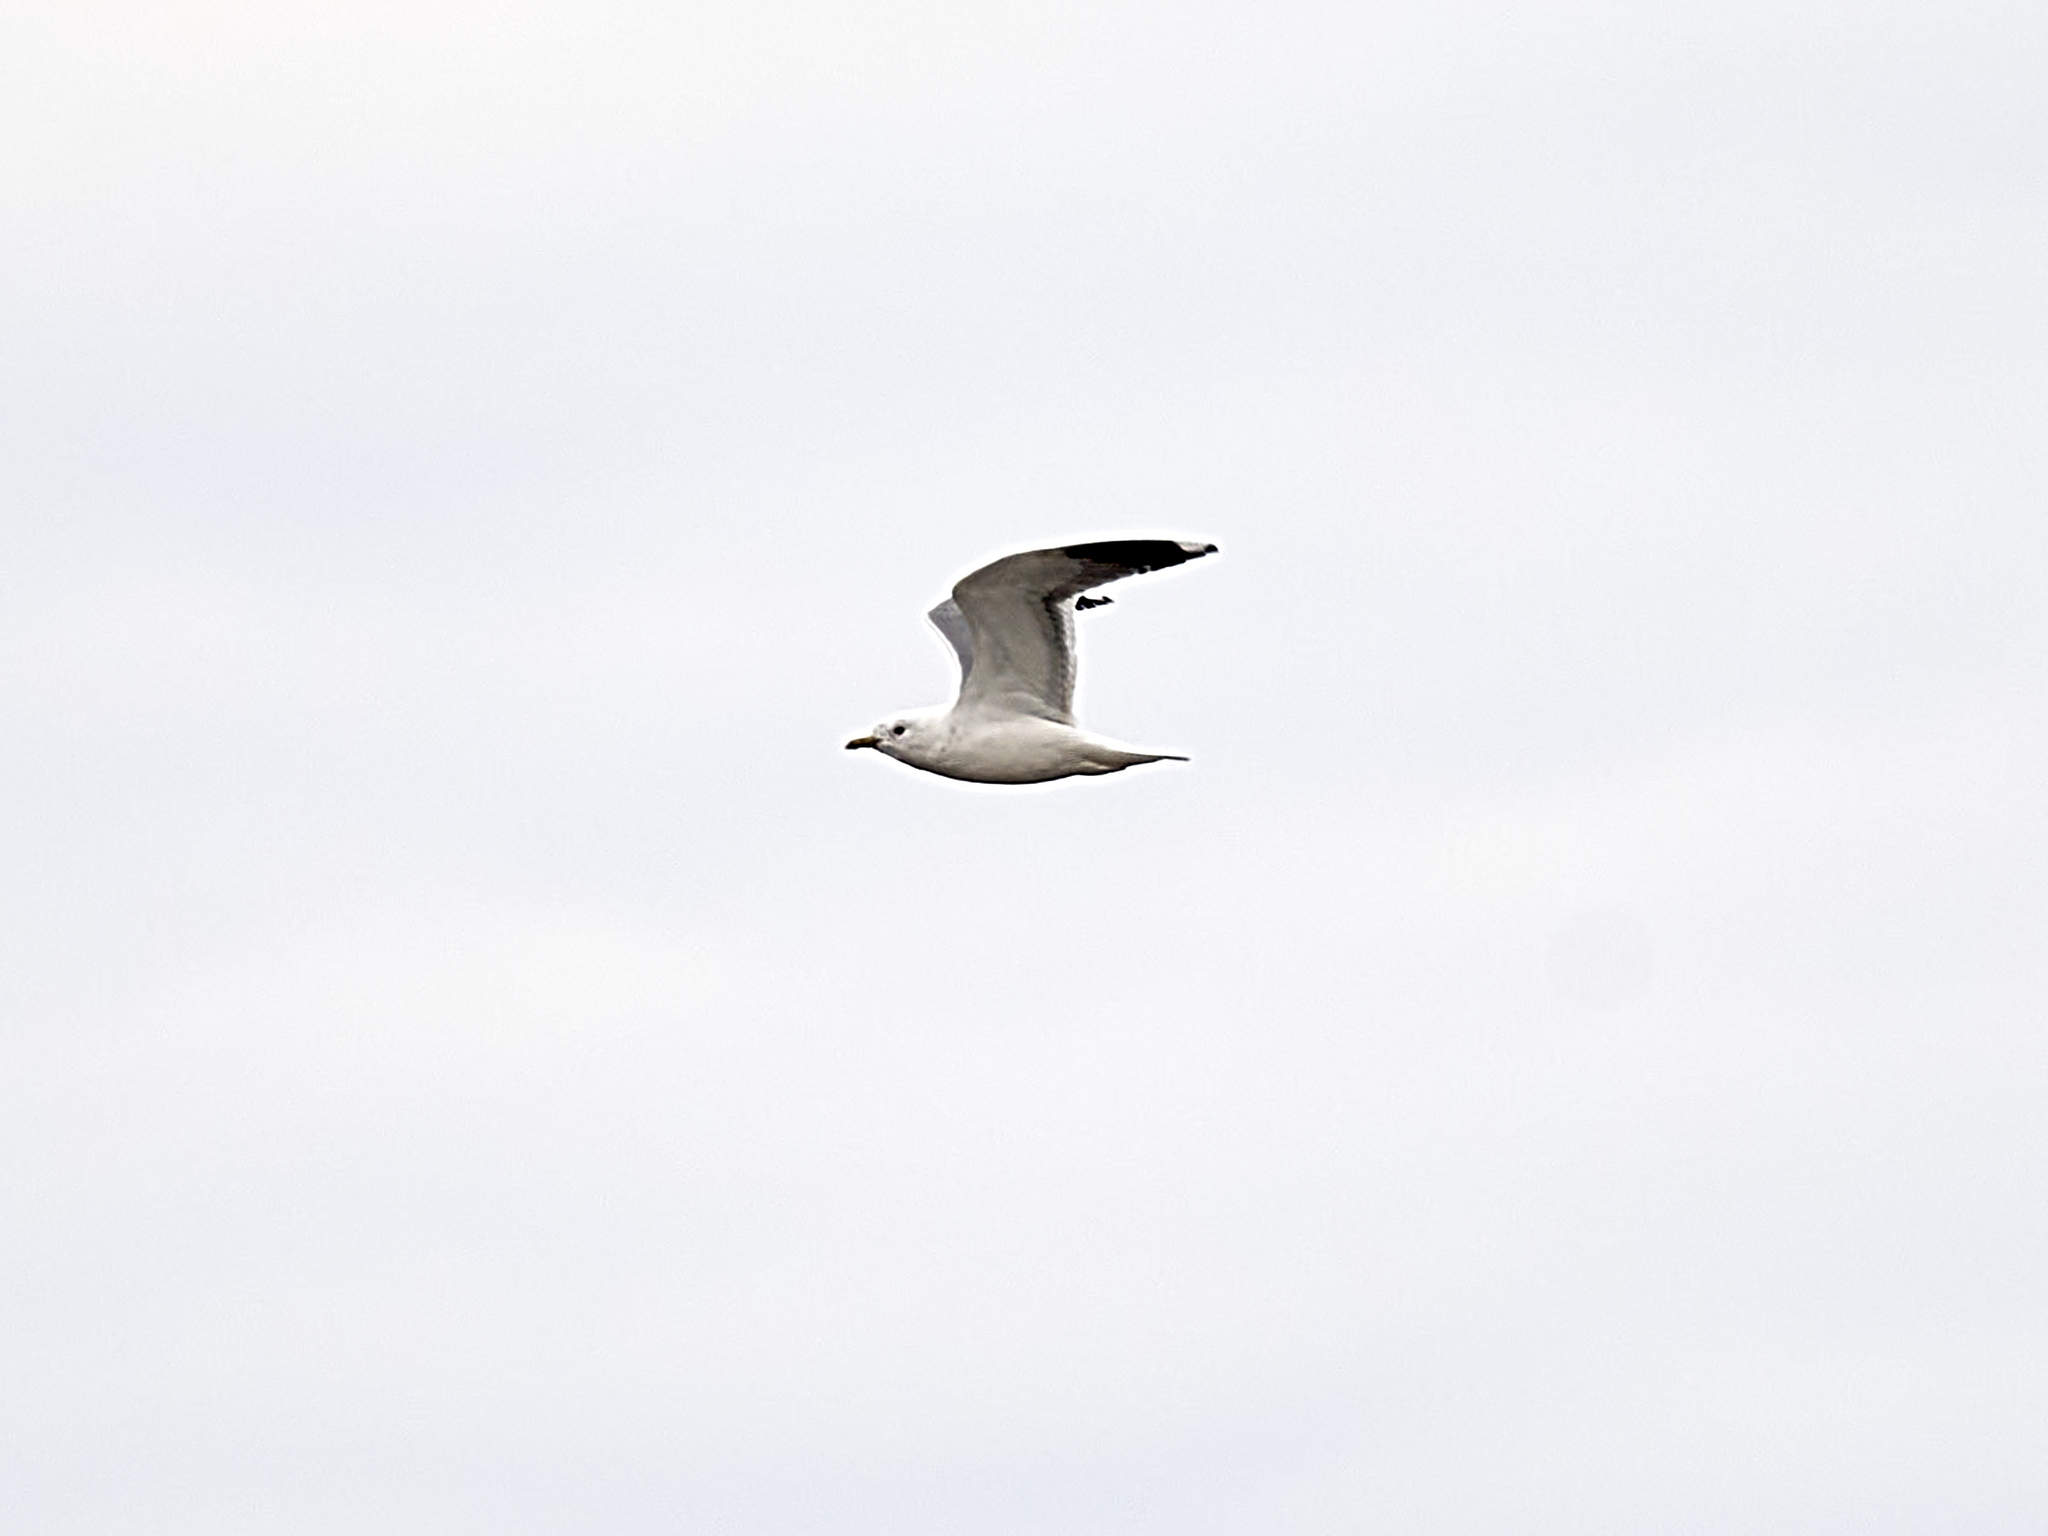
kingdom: Animalia
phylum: Chordata
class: Aves
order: Charadriiformes
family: Laridae
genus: Larus
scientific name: Larus canus
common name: Mew gull
